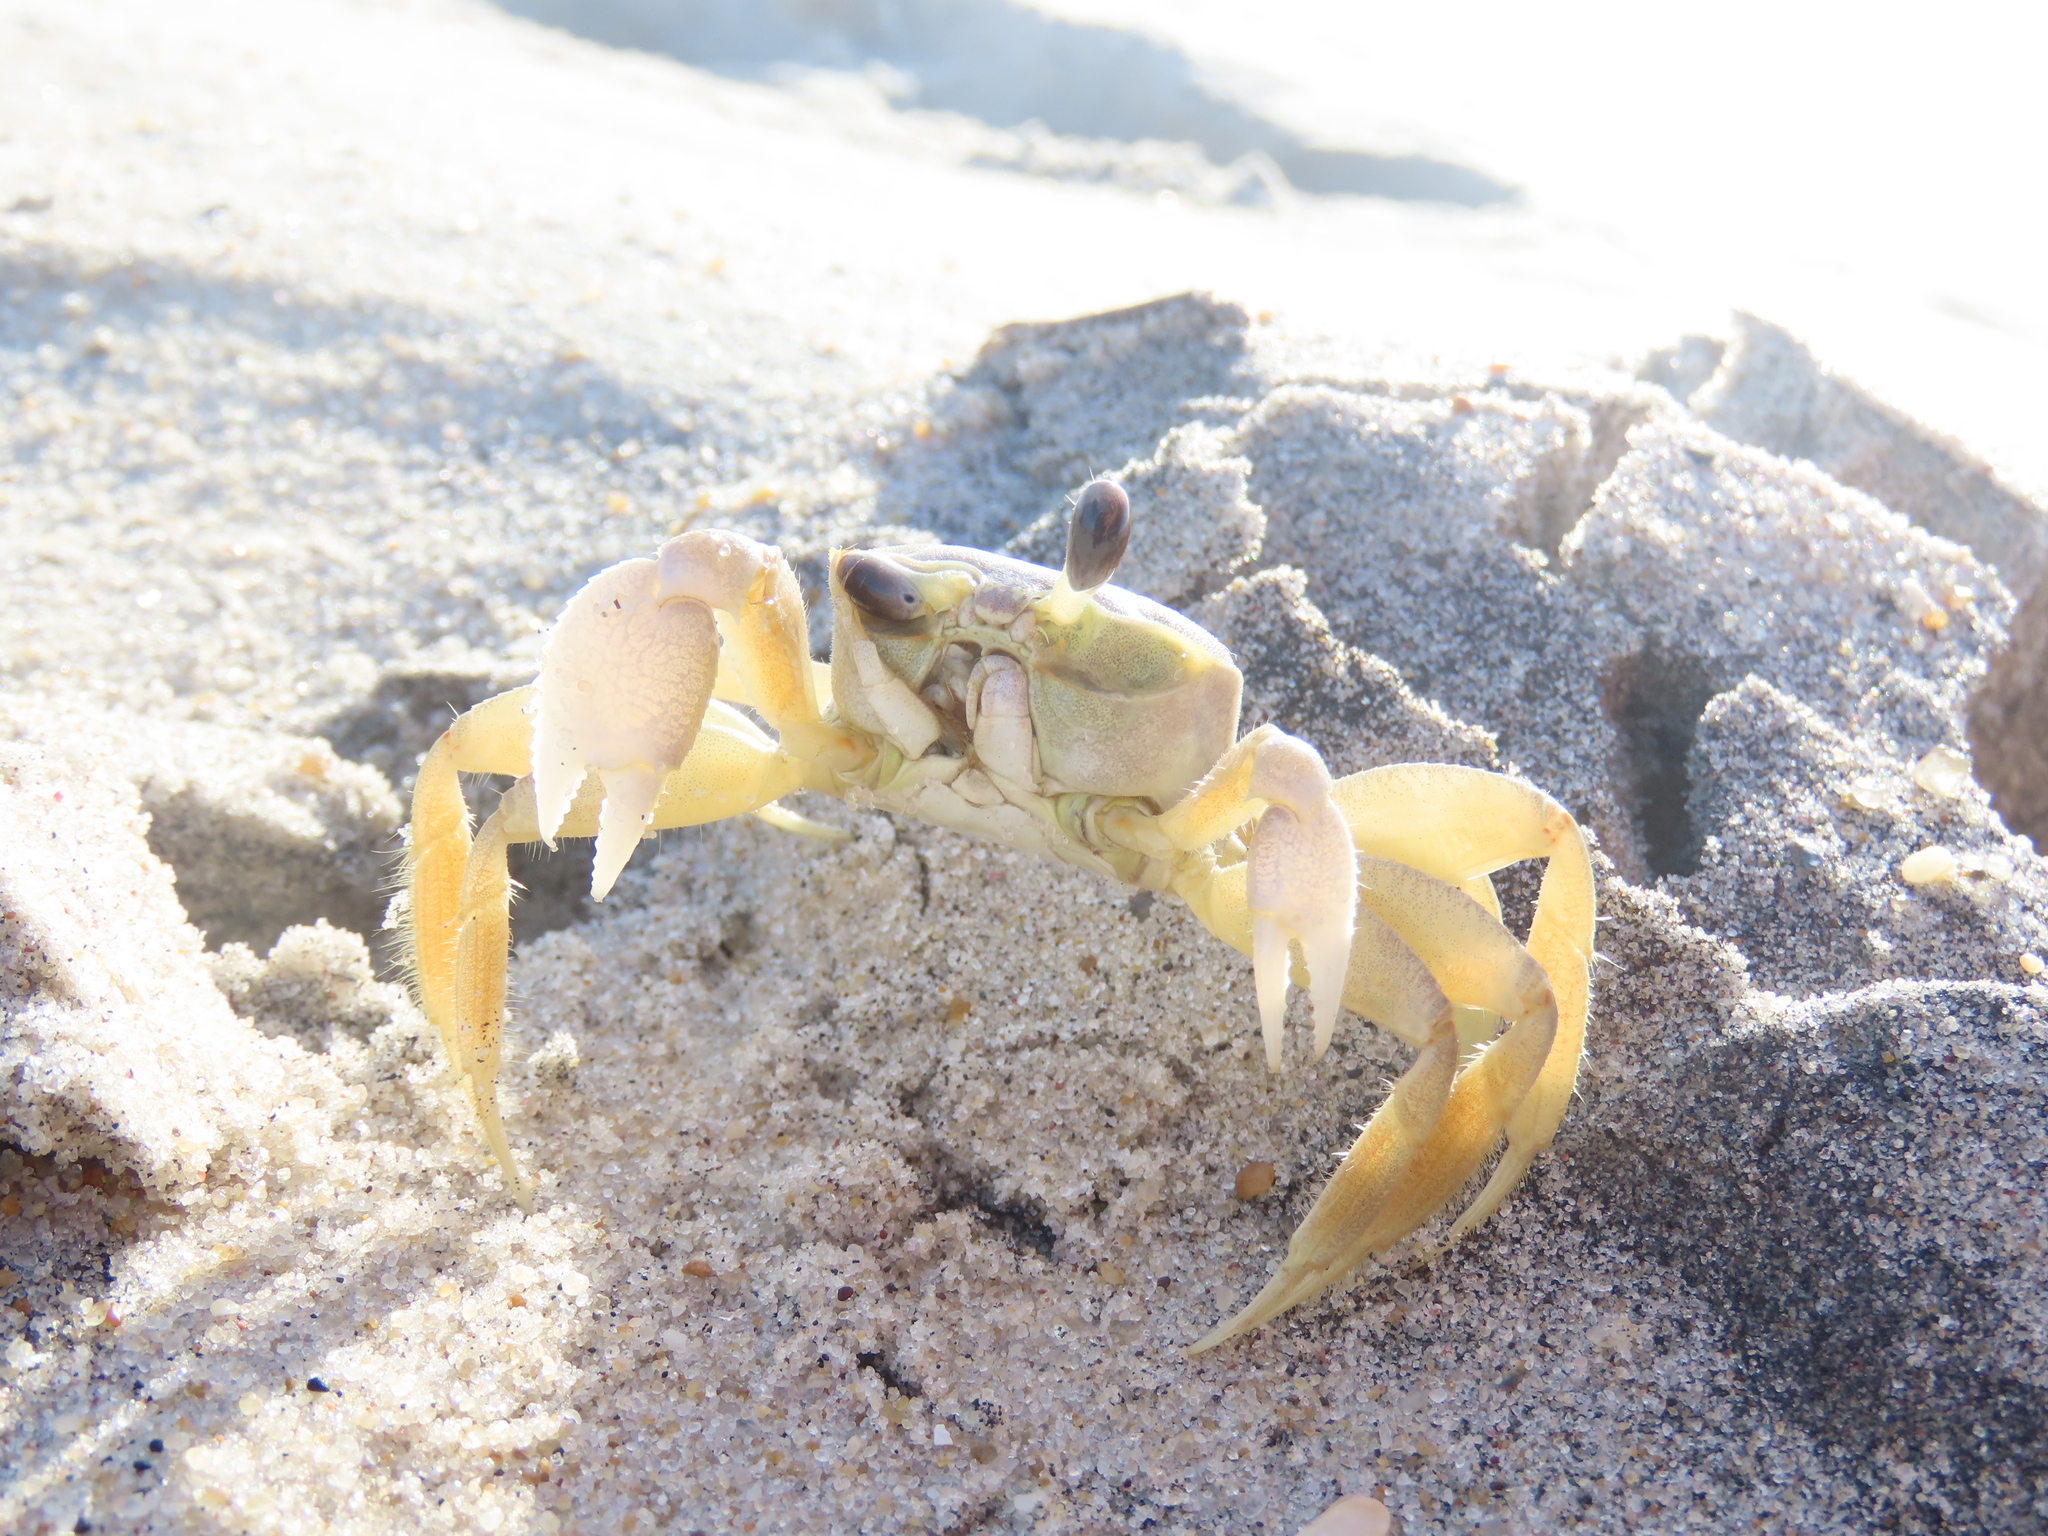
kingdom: Animalia
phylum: Arthropoda
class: Malacostraca
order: Decapoda
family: Ocypodidae
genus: Ocypode
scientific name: Ocypode quadrata
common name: Ghost crab
